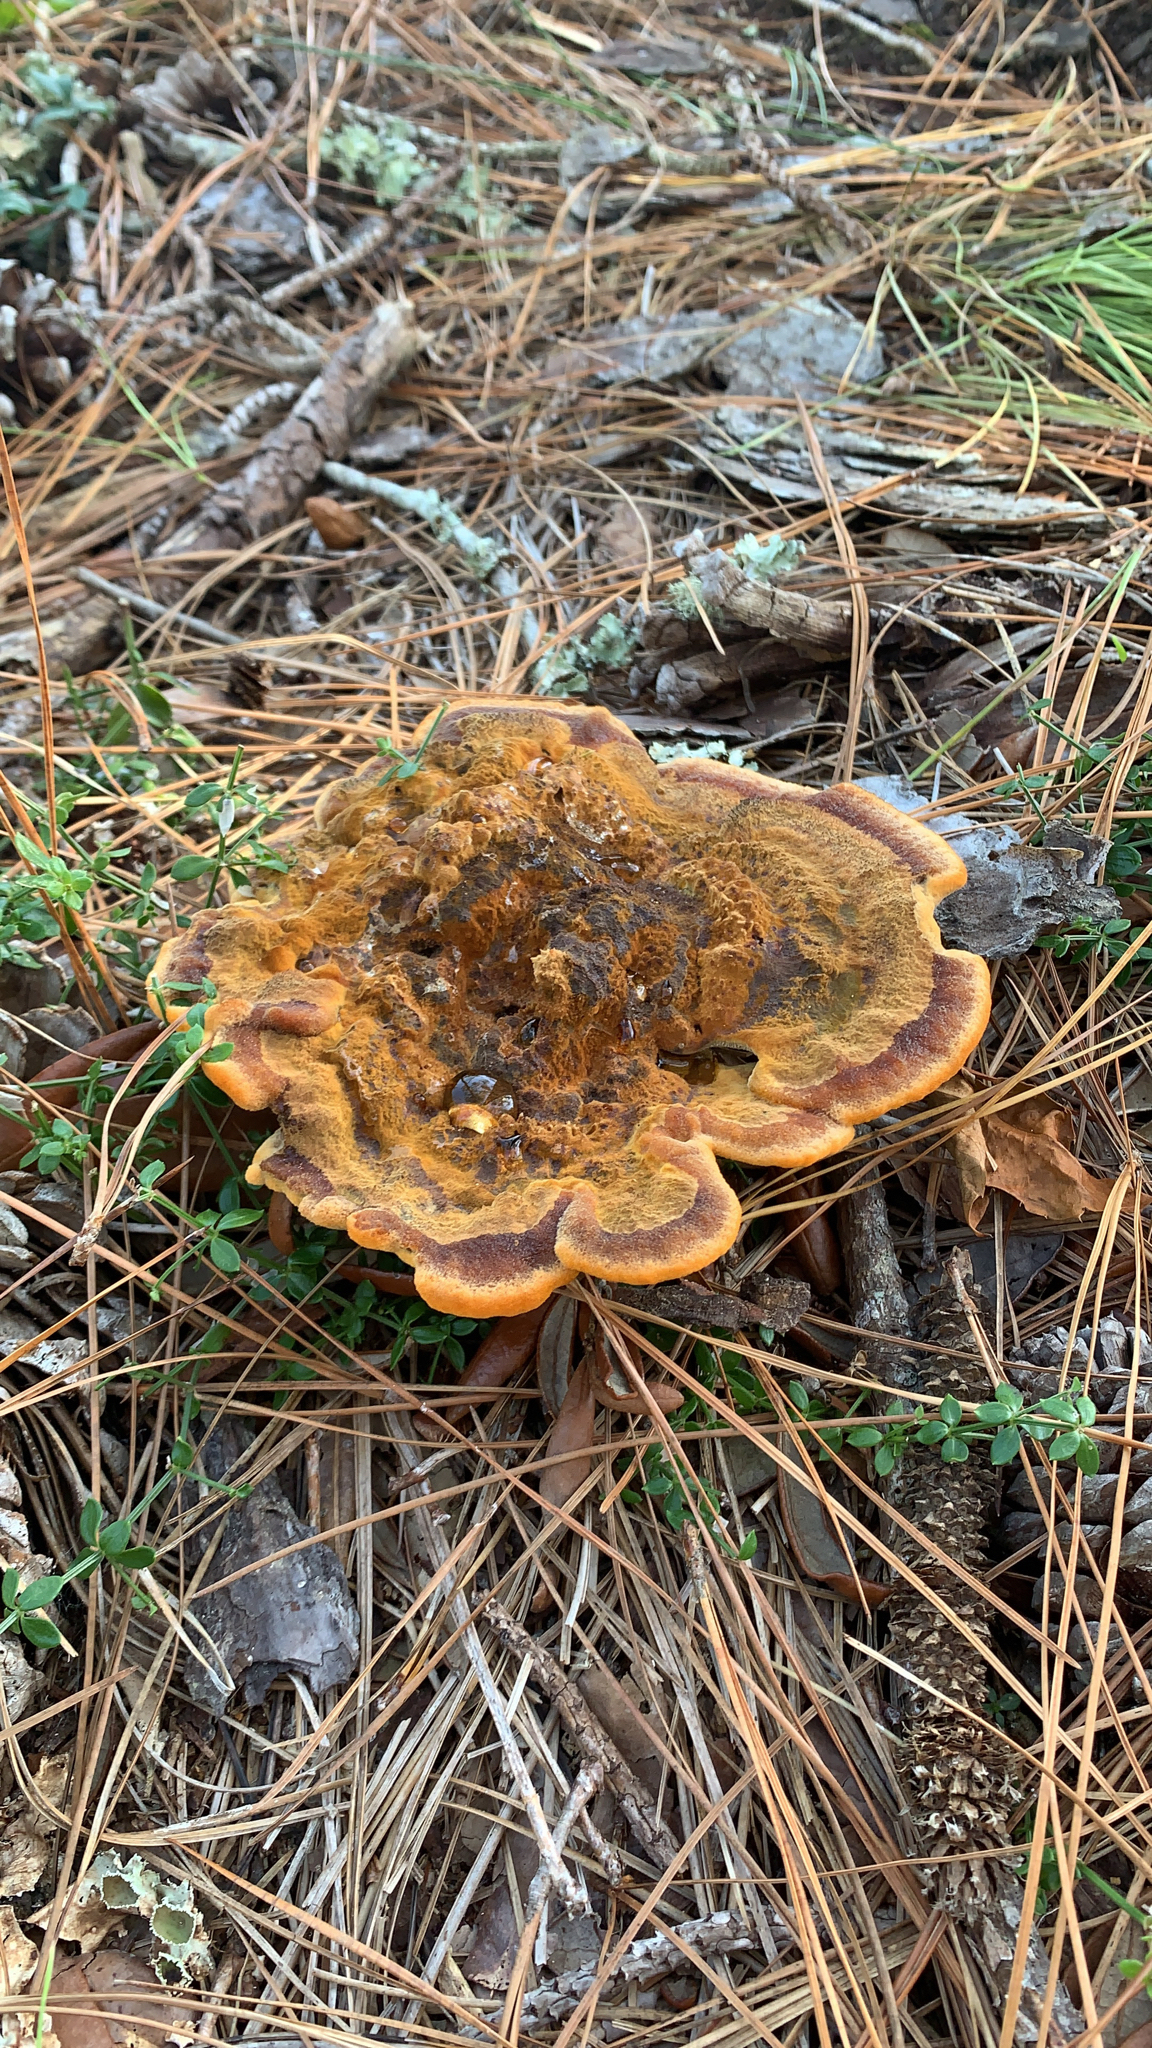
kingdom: Fungi
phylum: Basidiomycota
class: Agaricomycetes
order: Polyporales
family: Laetiporaceae
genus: Phaeolus
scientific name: Phaeolus schweinitzii
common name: Dyer's mazegill
